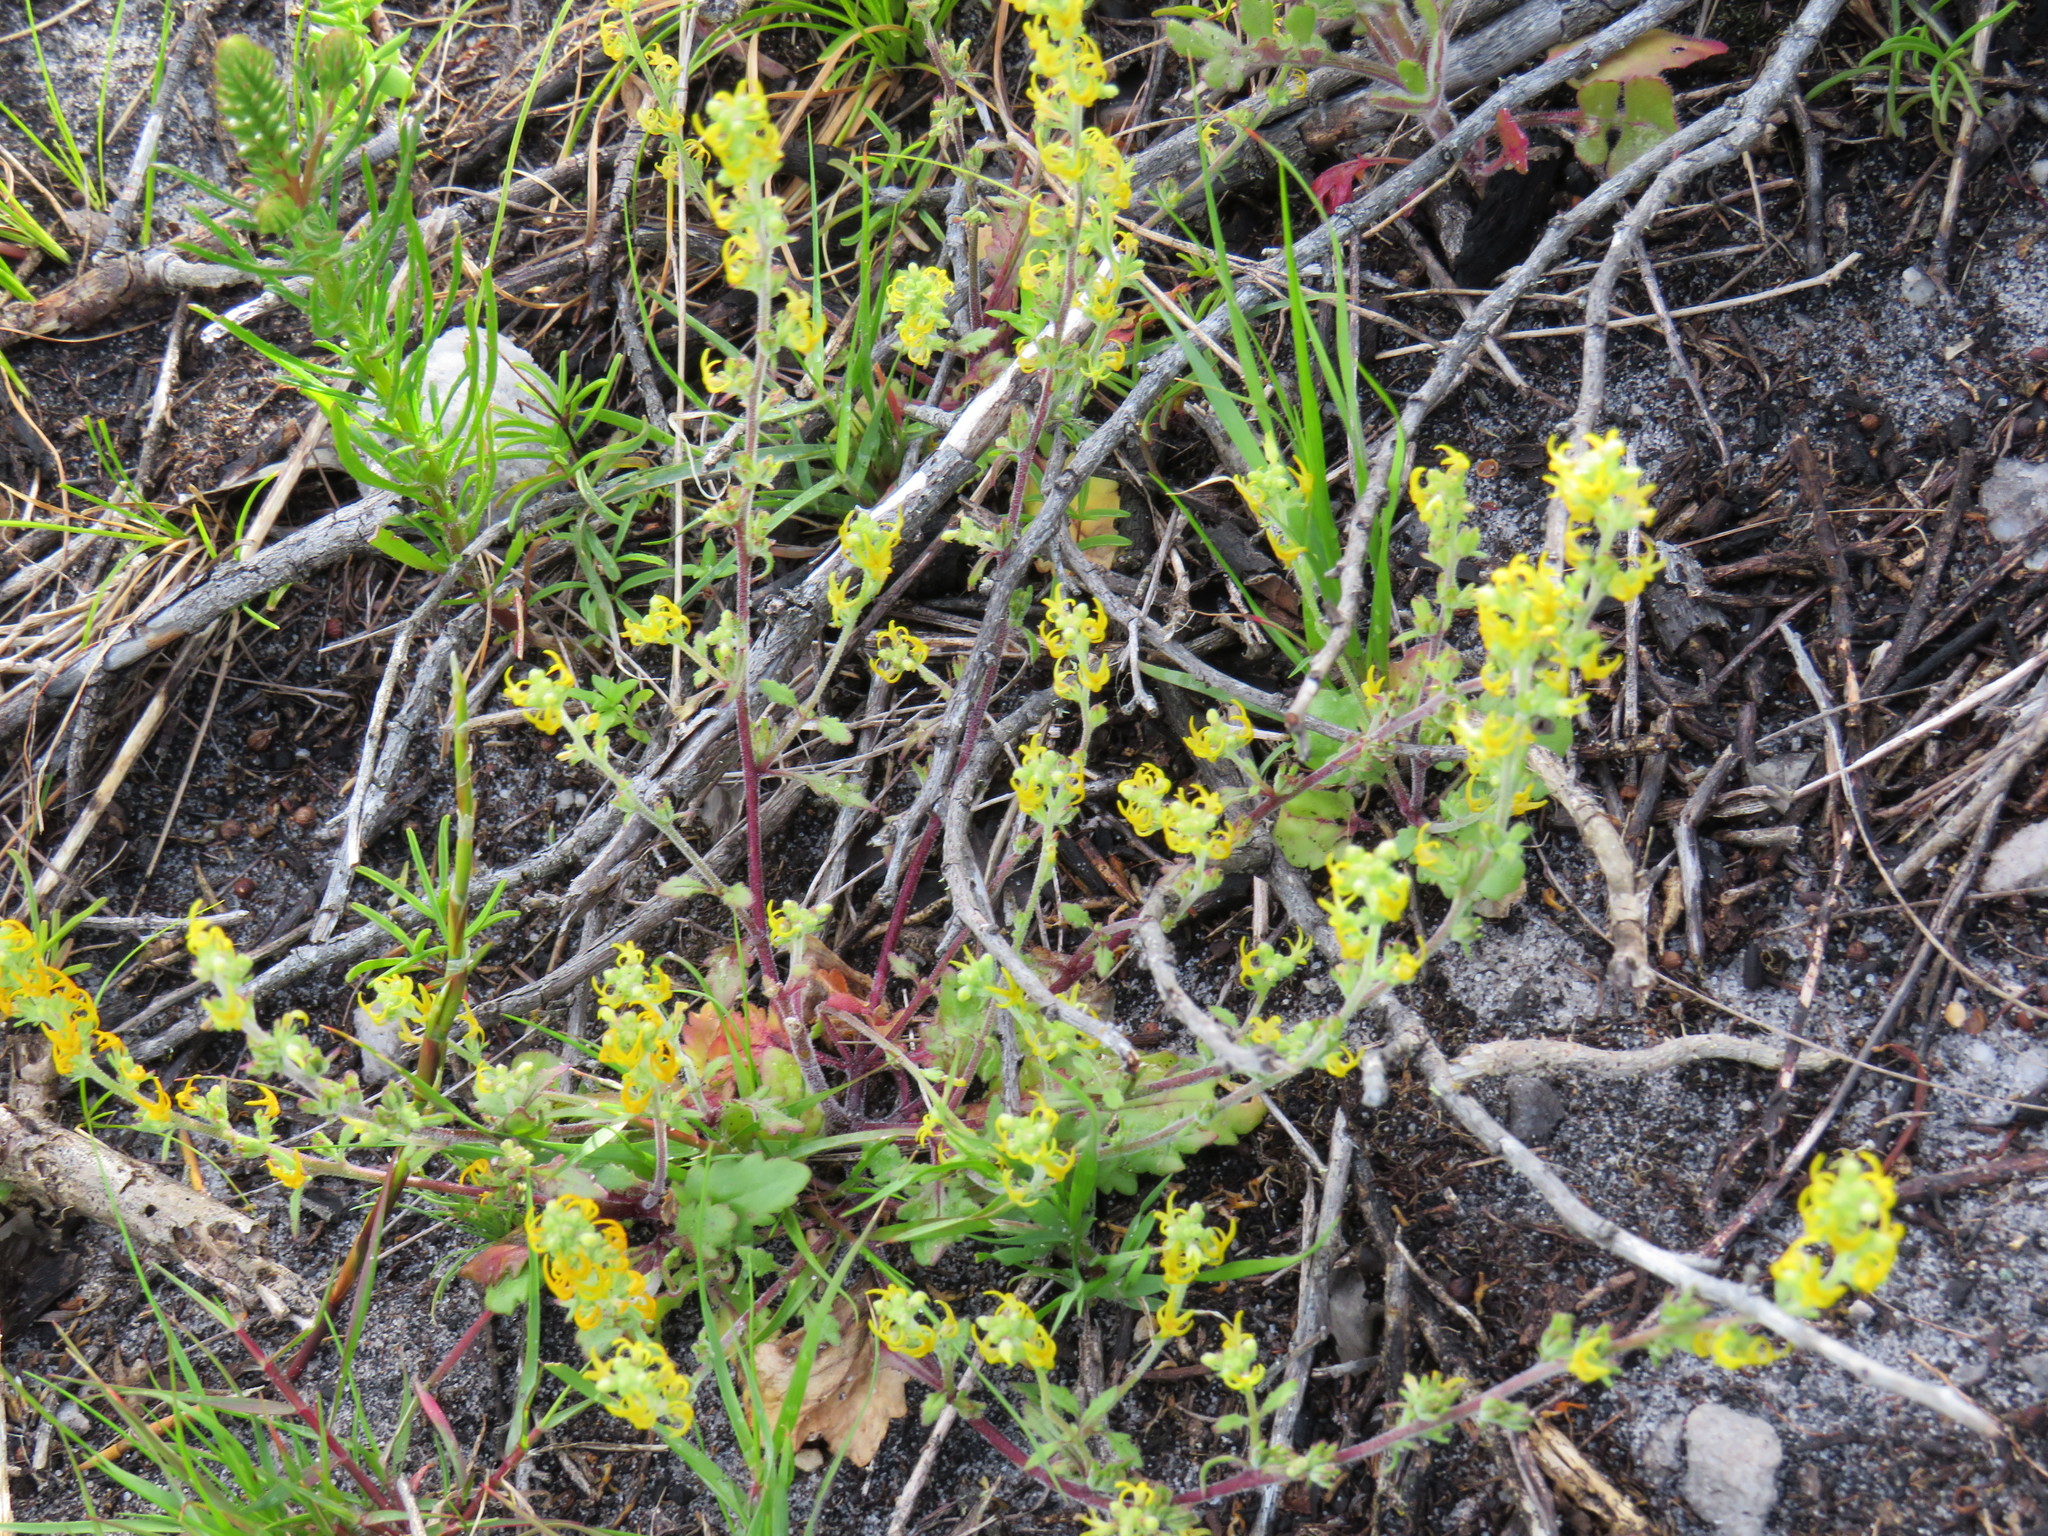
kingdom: Plantae
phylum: Tracheophyta
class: Magnoliopsida
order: Lamiales
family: Scrophulariaceae
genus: Manulea
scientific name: Manulea cheiranthus
